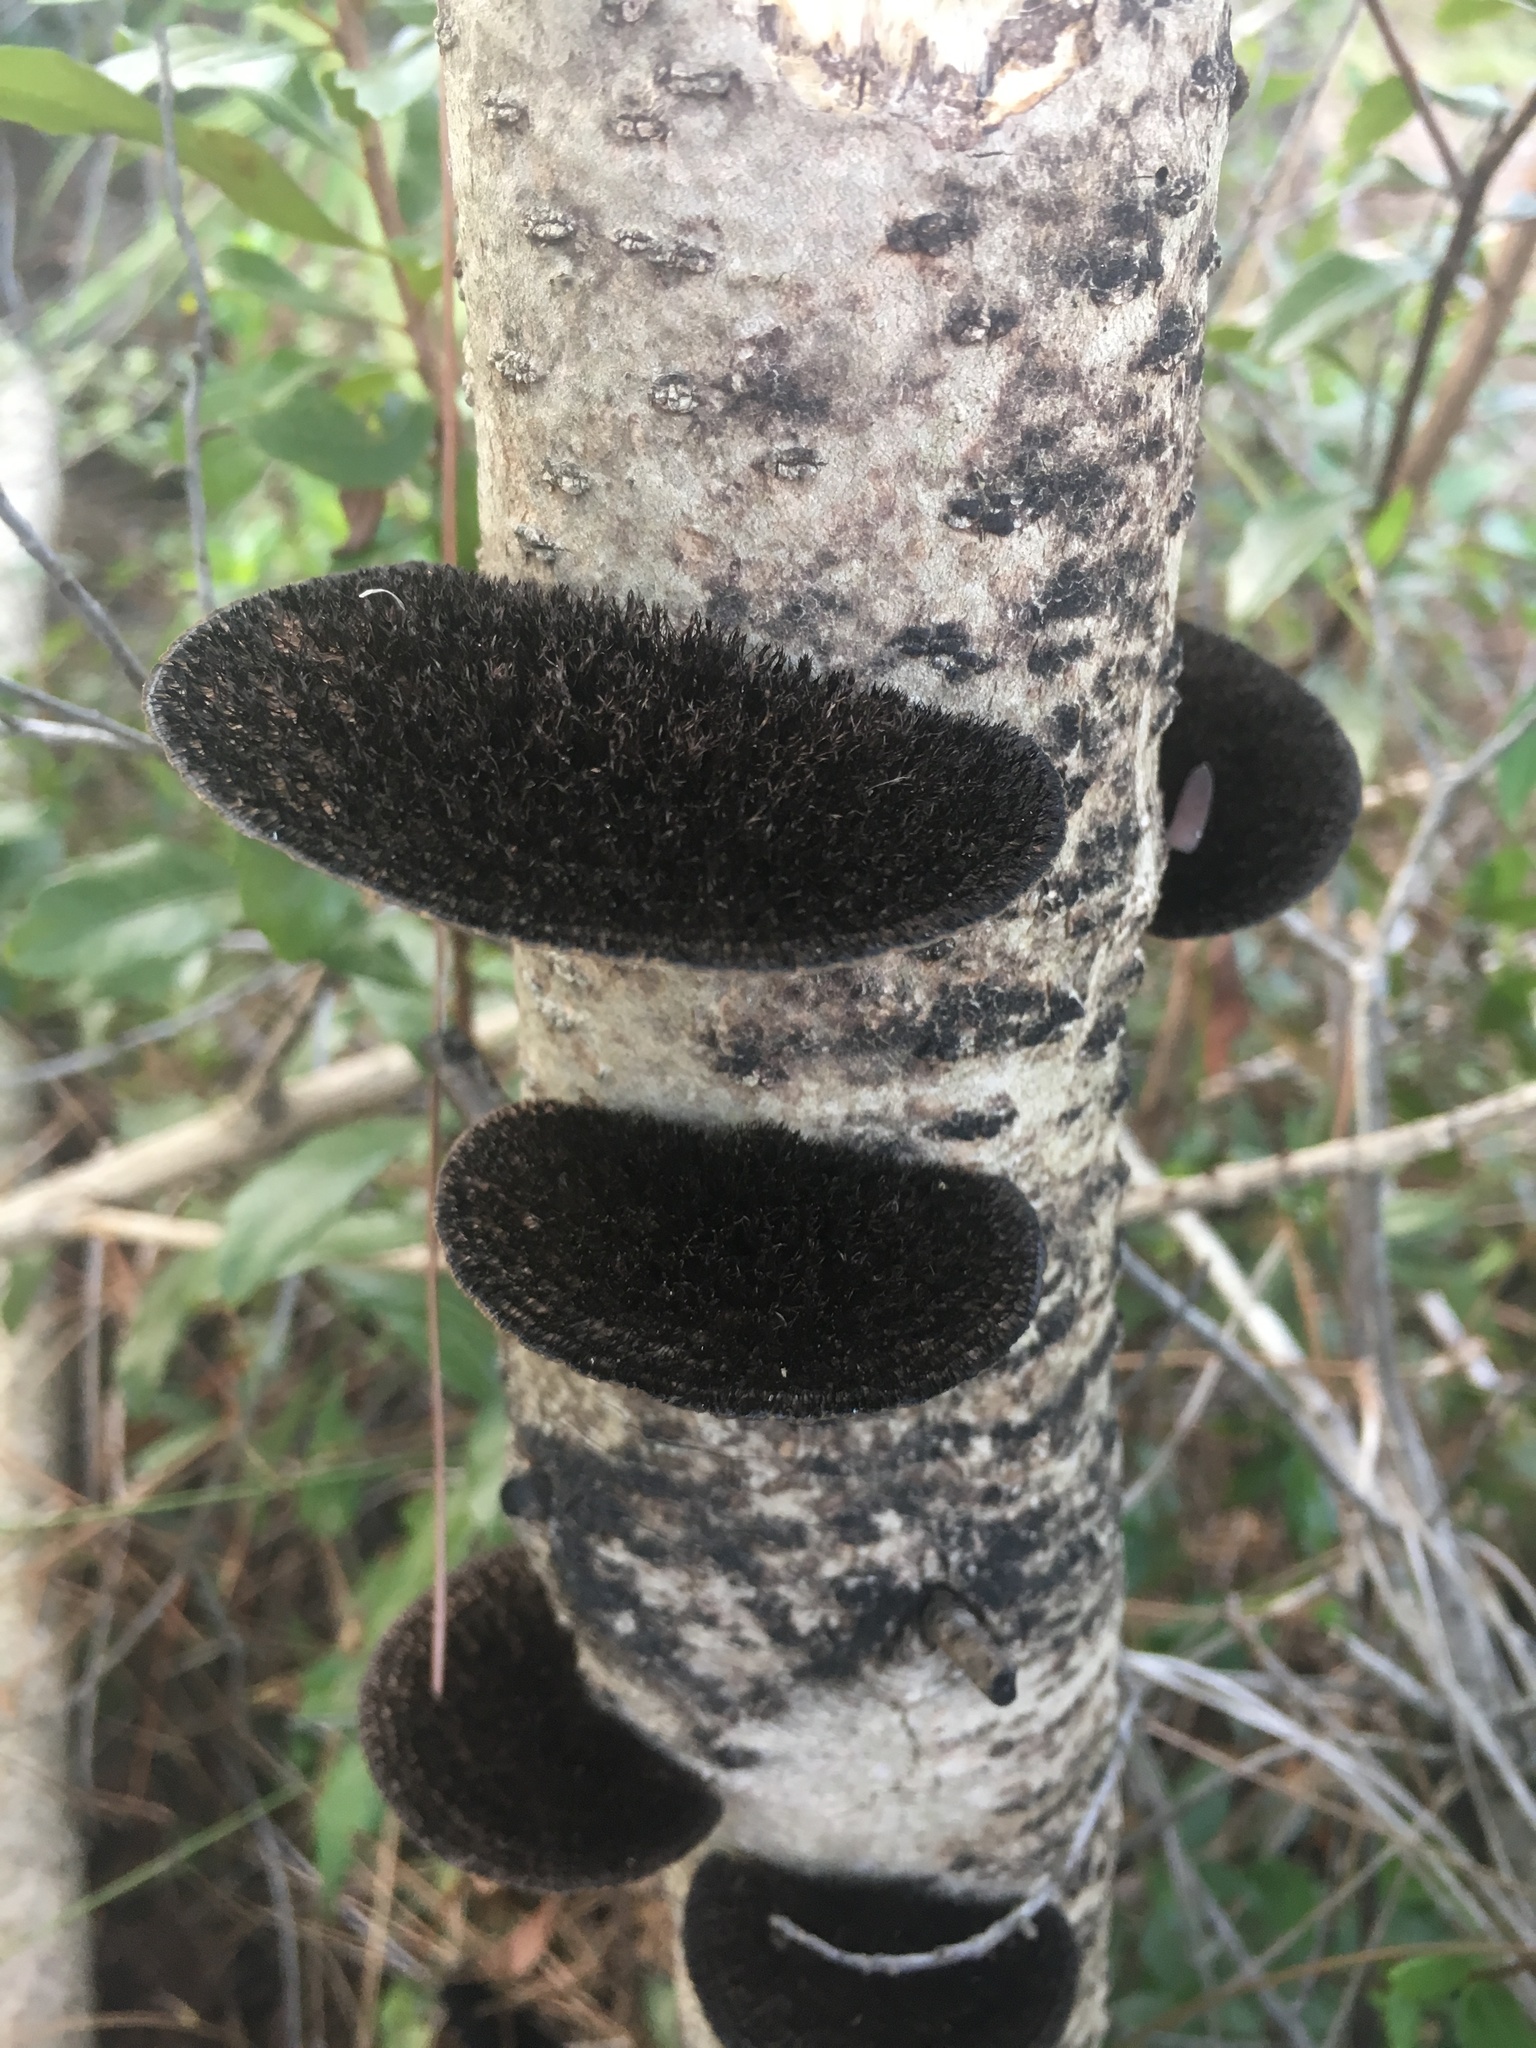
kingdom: Fungi
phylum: Basidiomycota
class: Agaricomycetes
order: Polyporales
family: Cerrenaceae
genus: Cerrena
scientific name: Cerrena hydnoides
